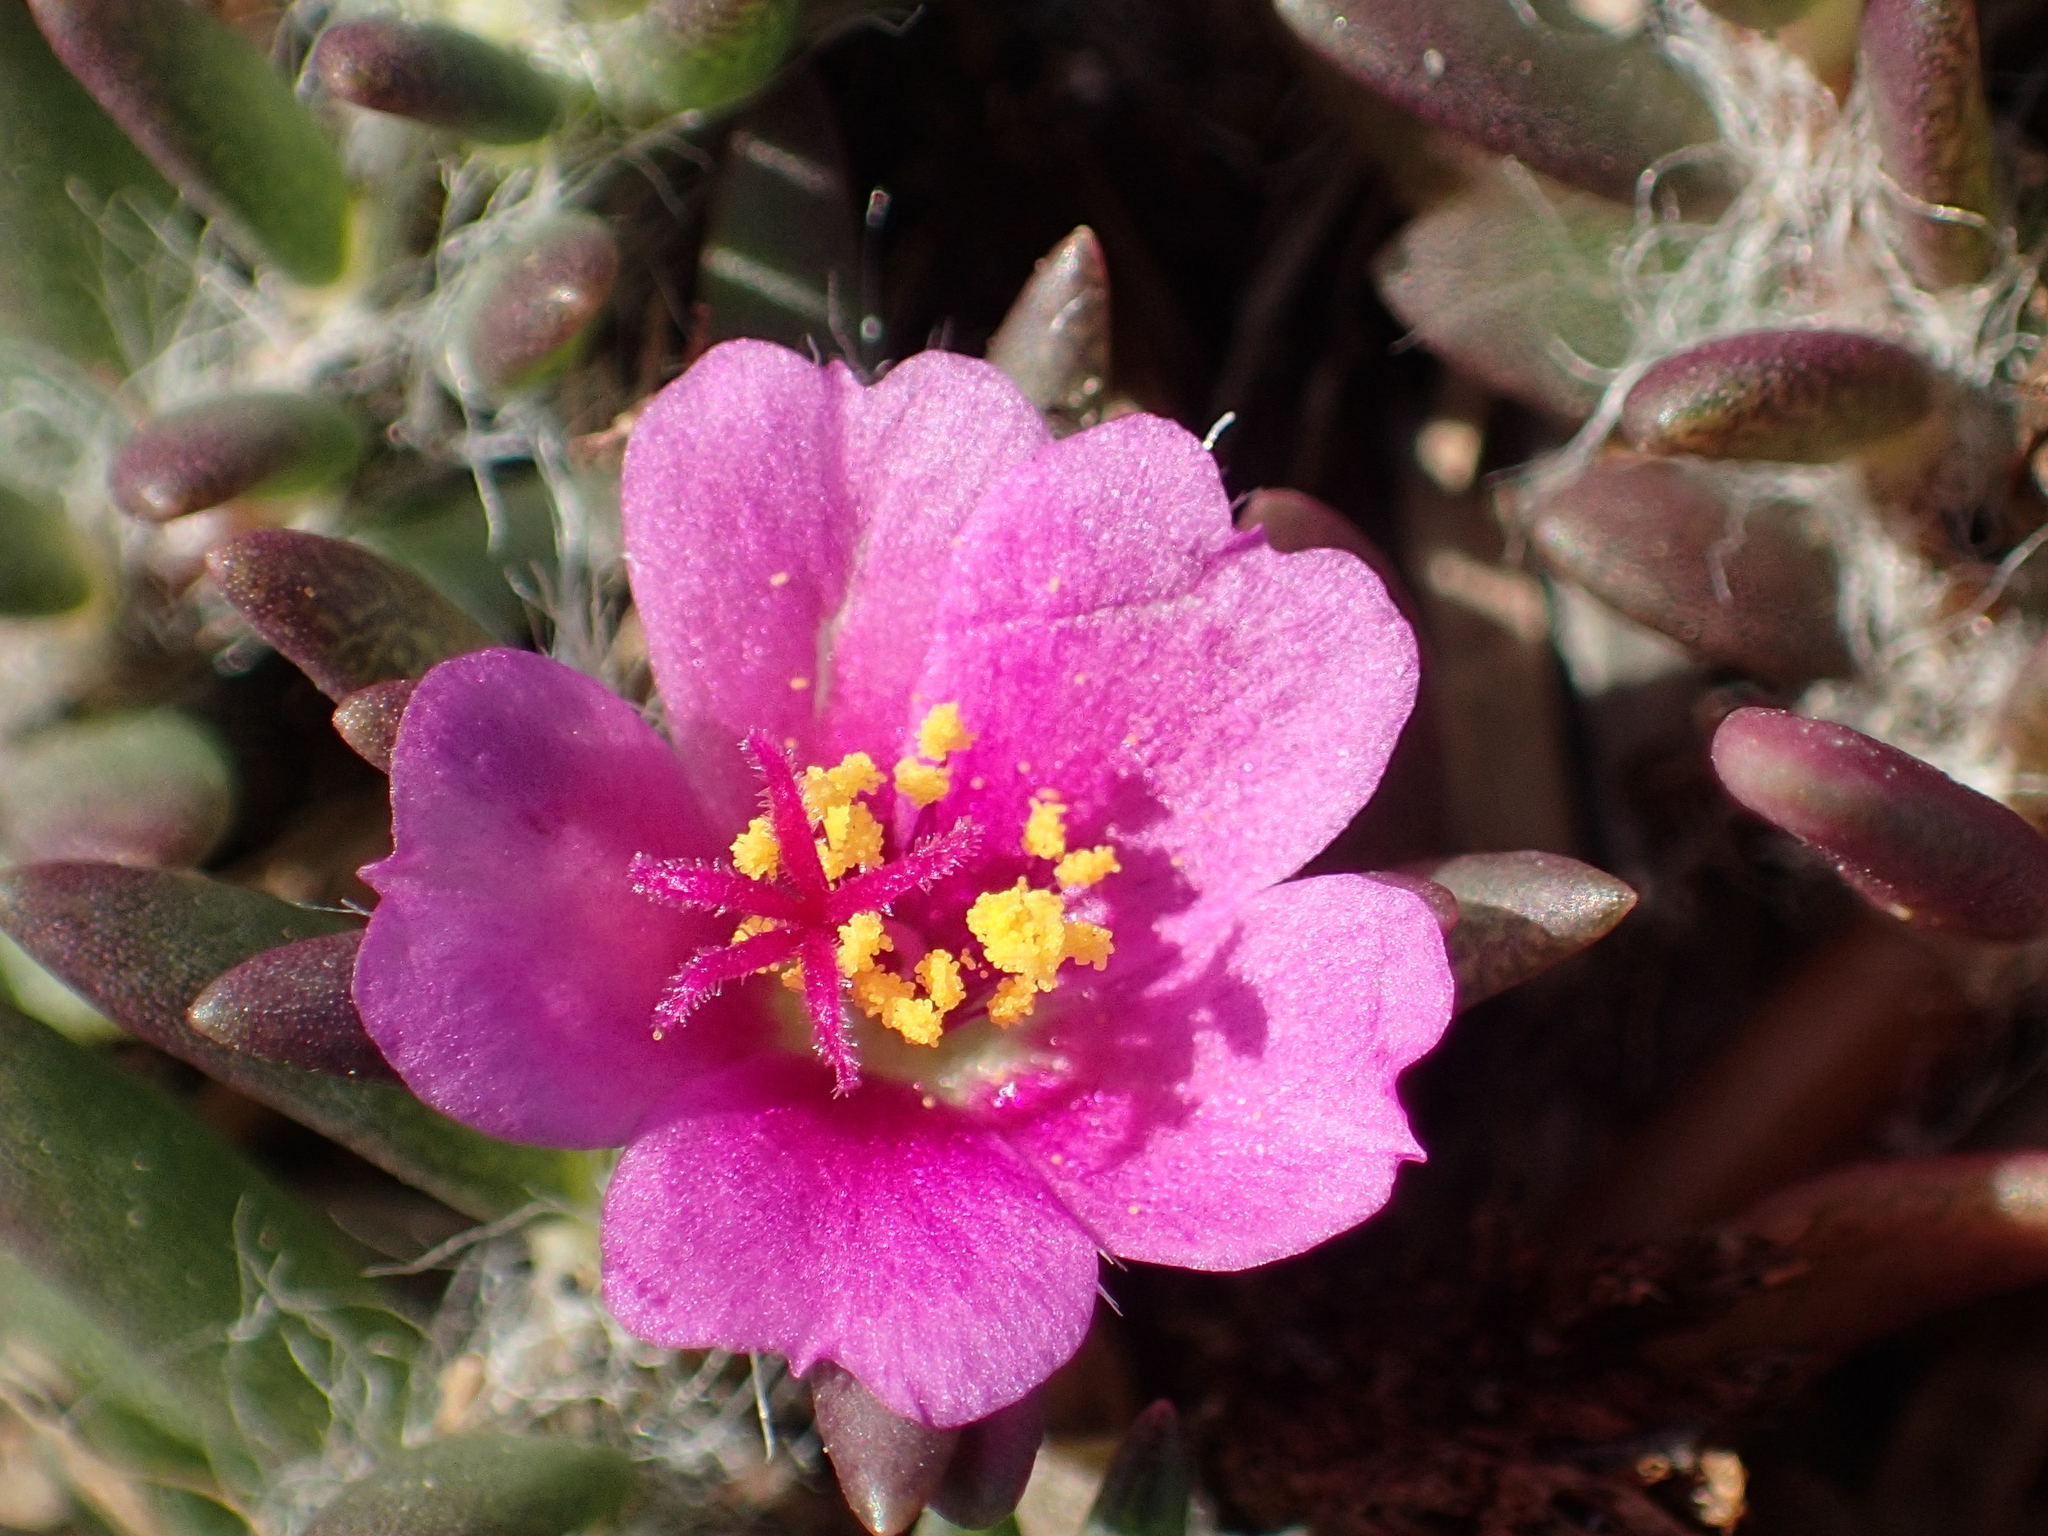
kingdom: Plantae
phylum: Tracheophyta
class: Magnoliopsida
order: Caryophyllales
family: Portulacaceae
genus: Portulaca
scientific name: Portulaca pilosa
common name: Kiss me quick
